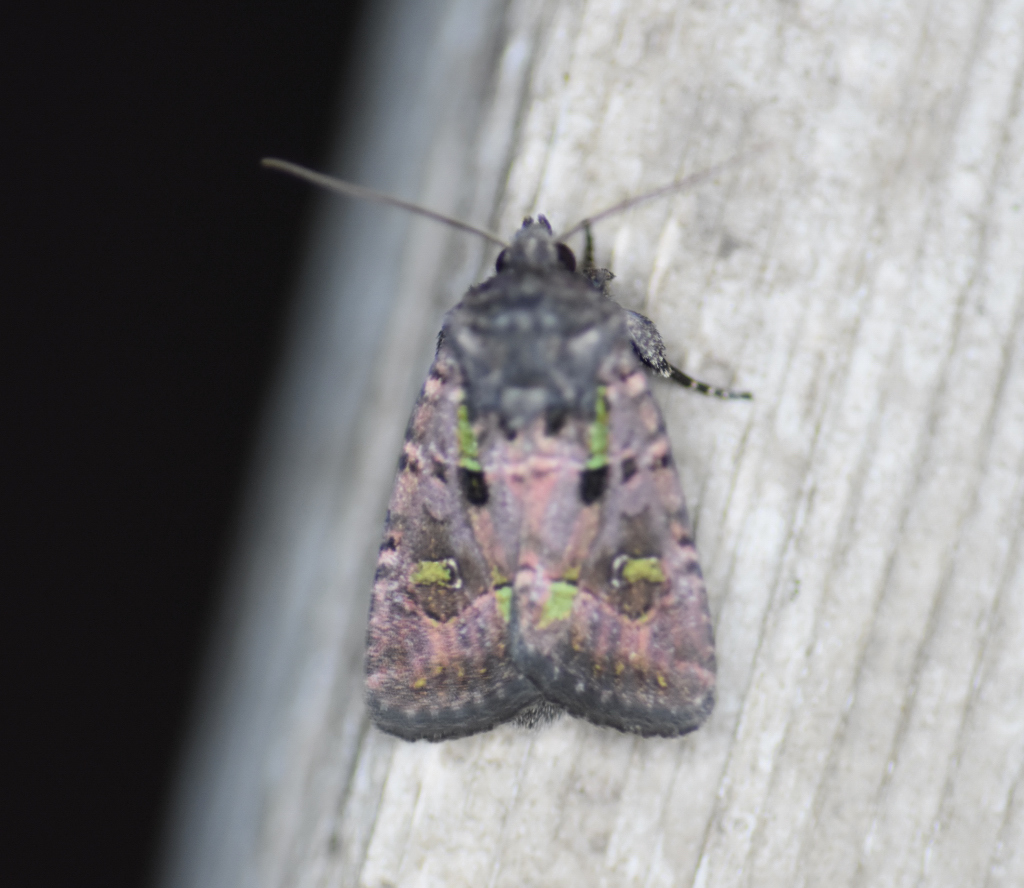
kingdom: Animalia
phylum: Arthropoda
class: Insecta
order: Lepidoptera
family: Noctuidae
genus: Lacinipolia
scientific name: Lacinipolia renigera
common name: Kidney-spotted minor
